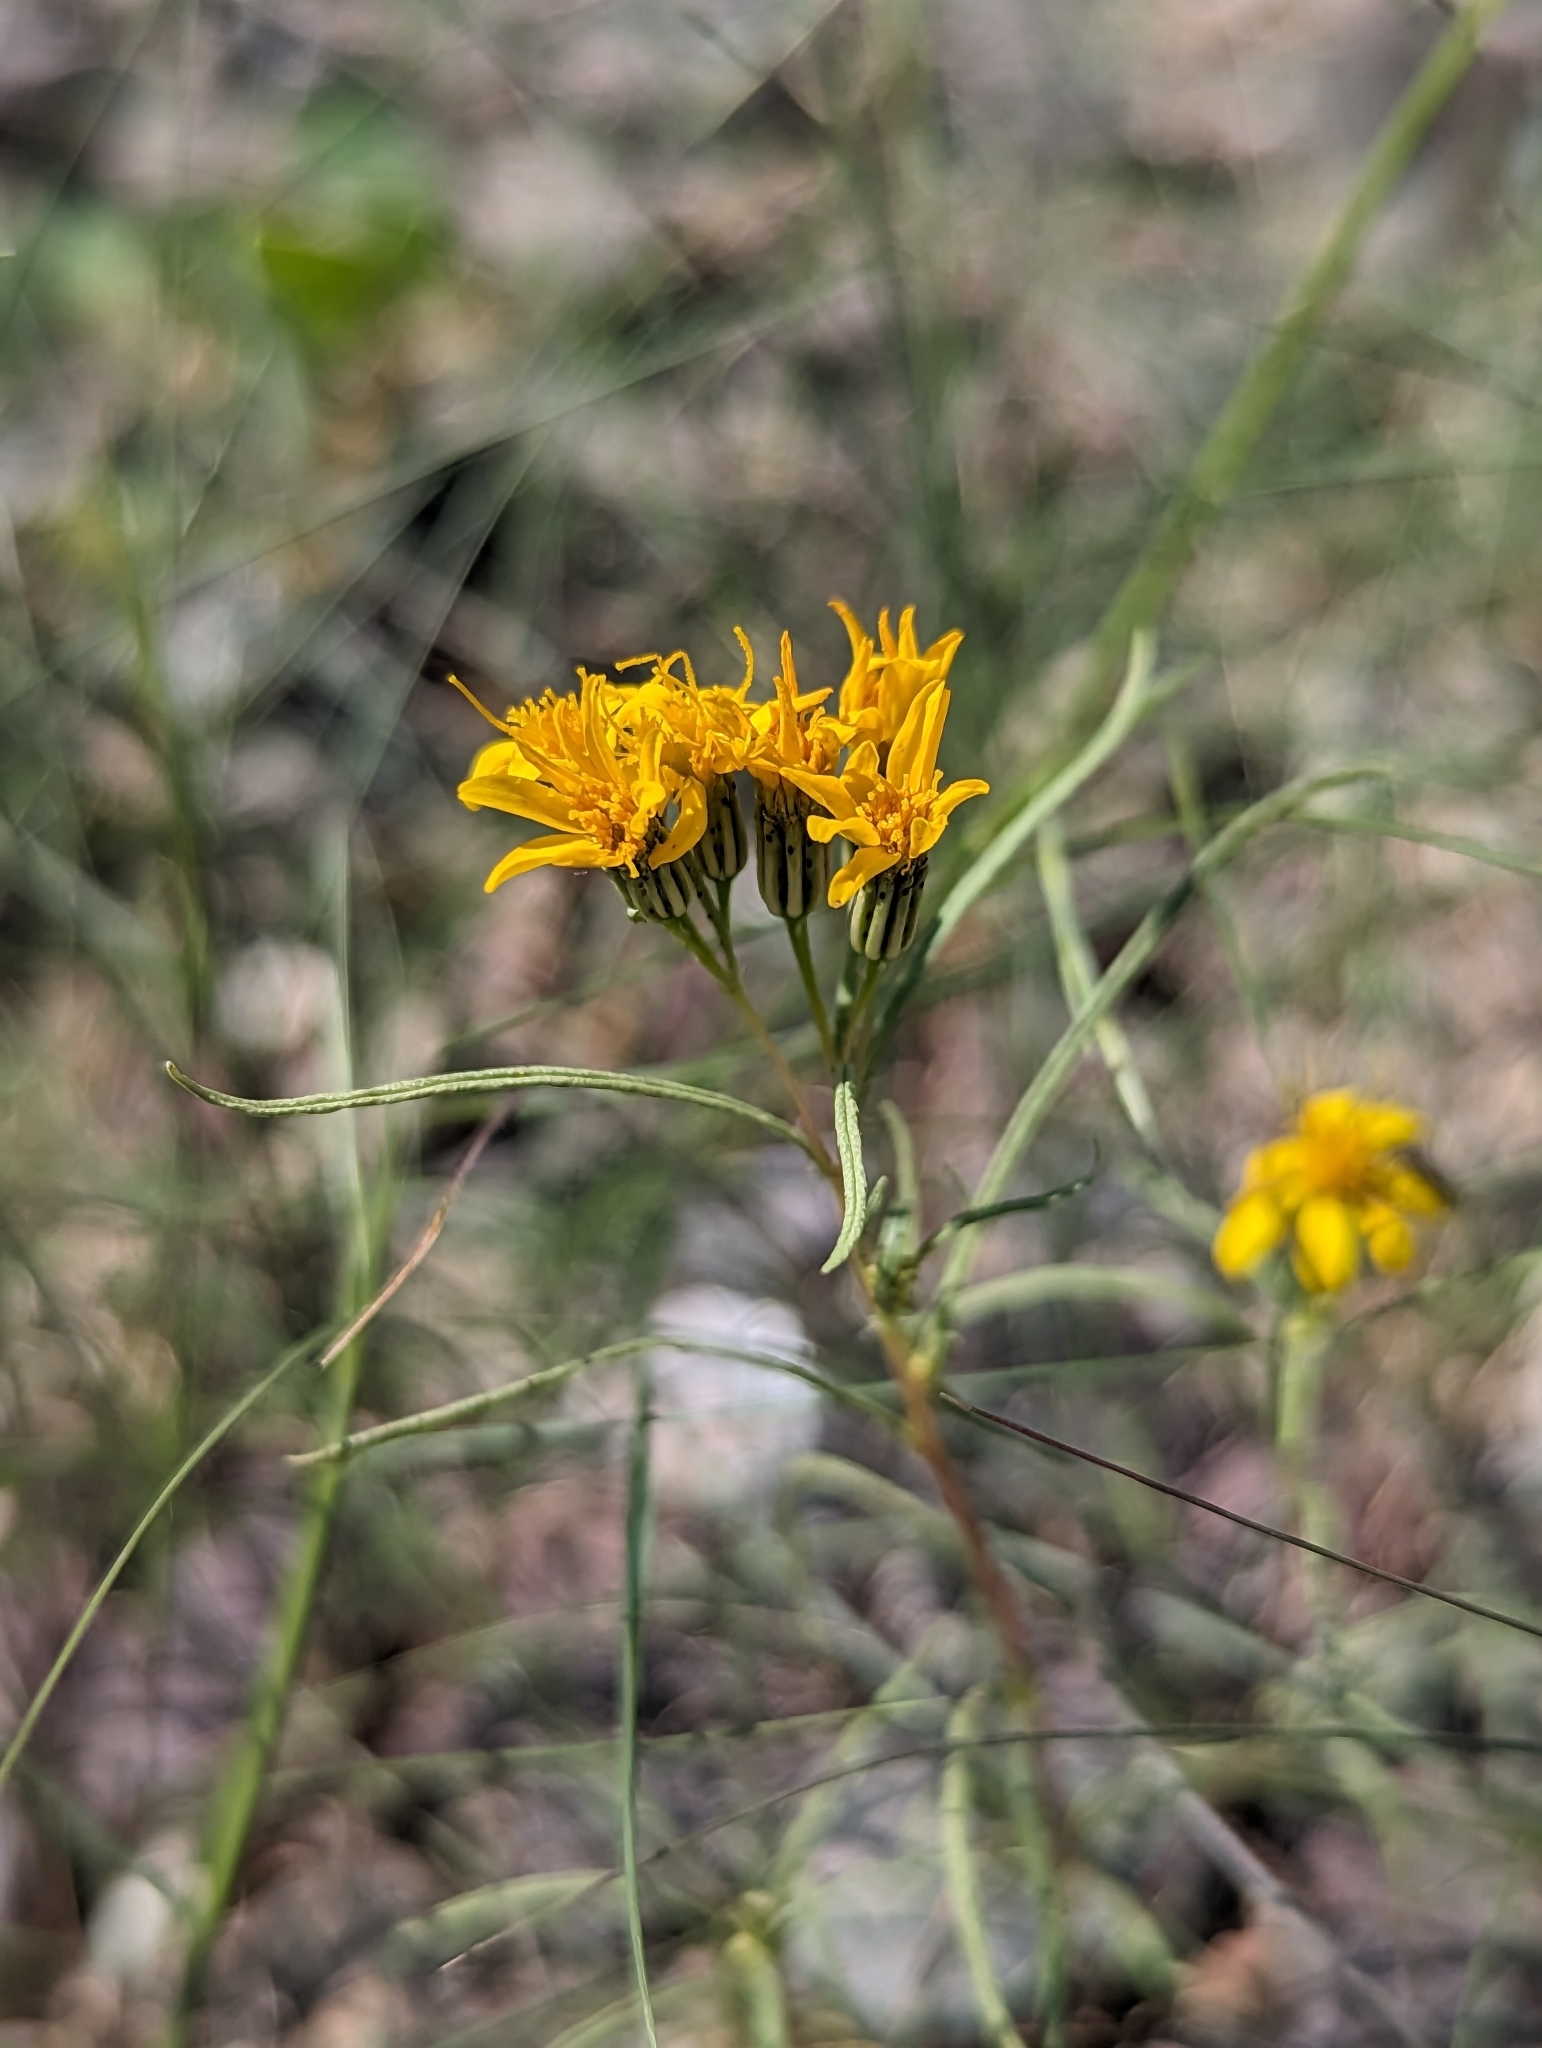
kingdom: Plantae
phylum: Tracheophyta
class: Magnoliopsida
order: Asterales
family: Asteraceae
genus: Pectis
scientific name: Pectis papposa
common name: Many-bristle chinchweed
